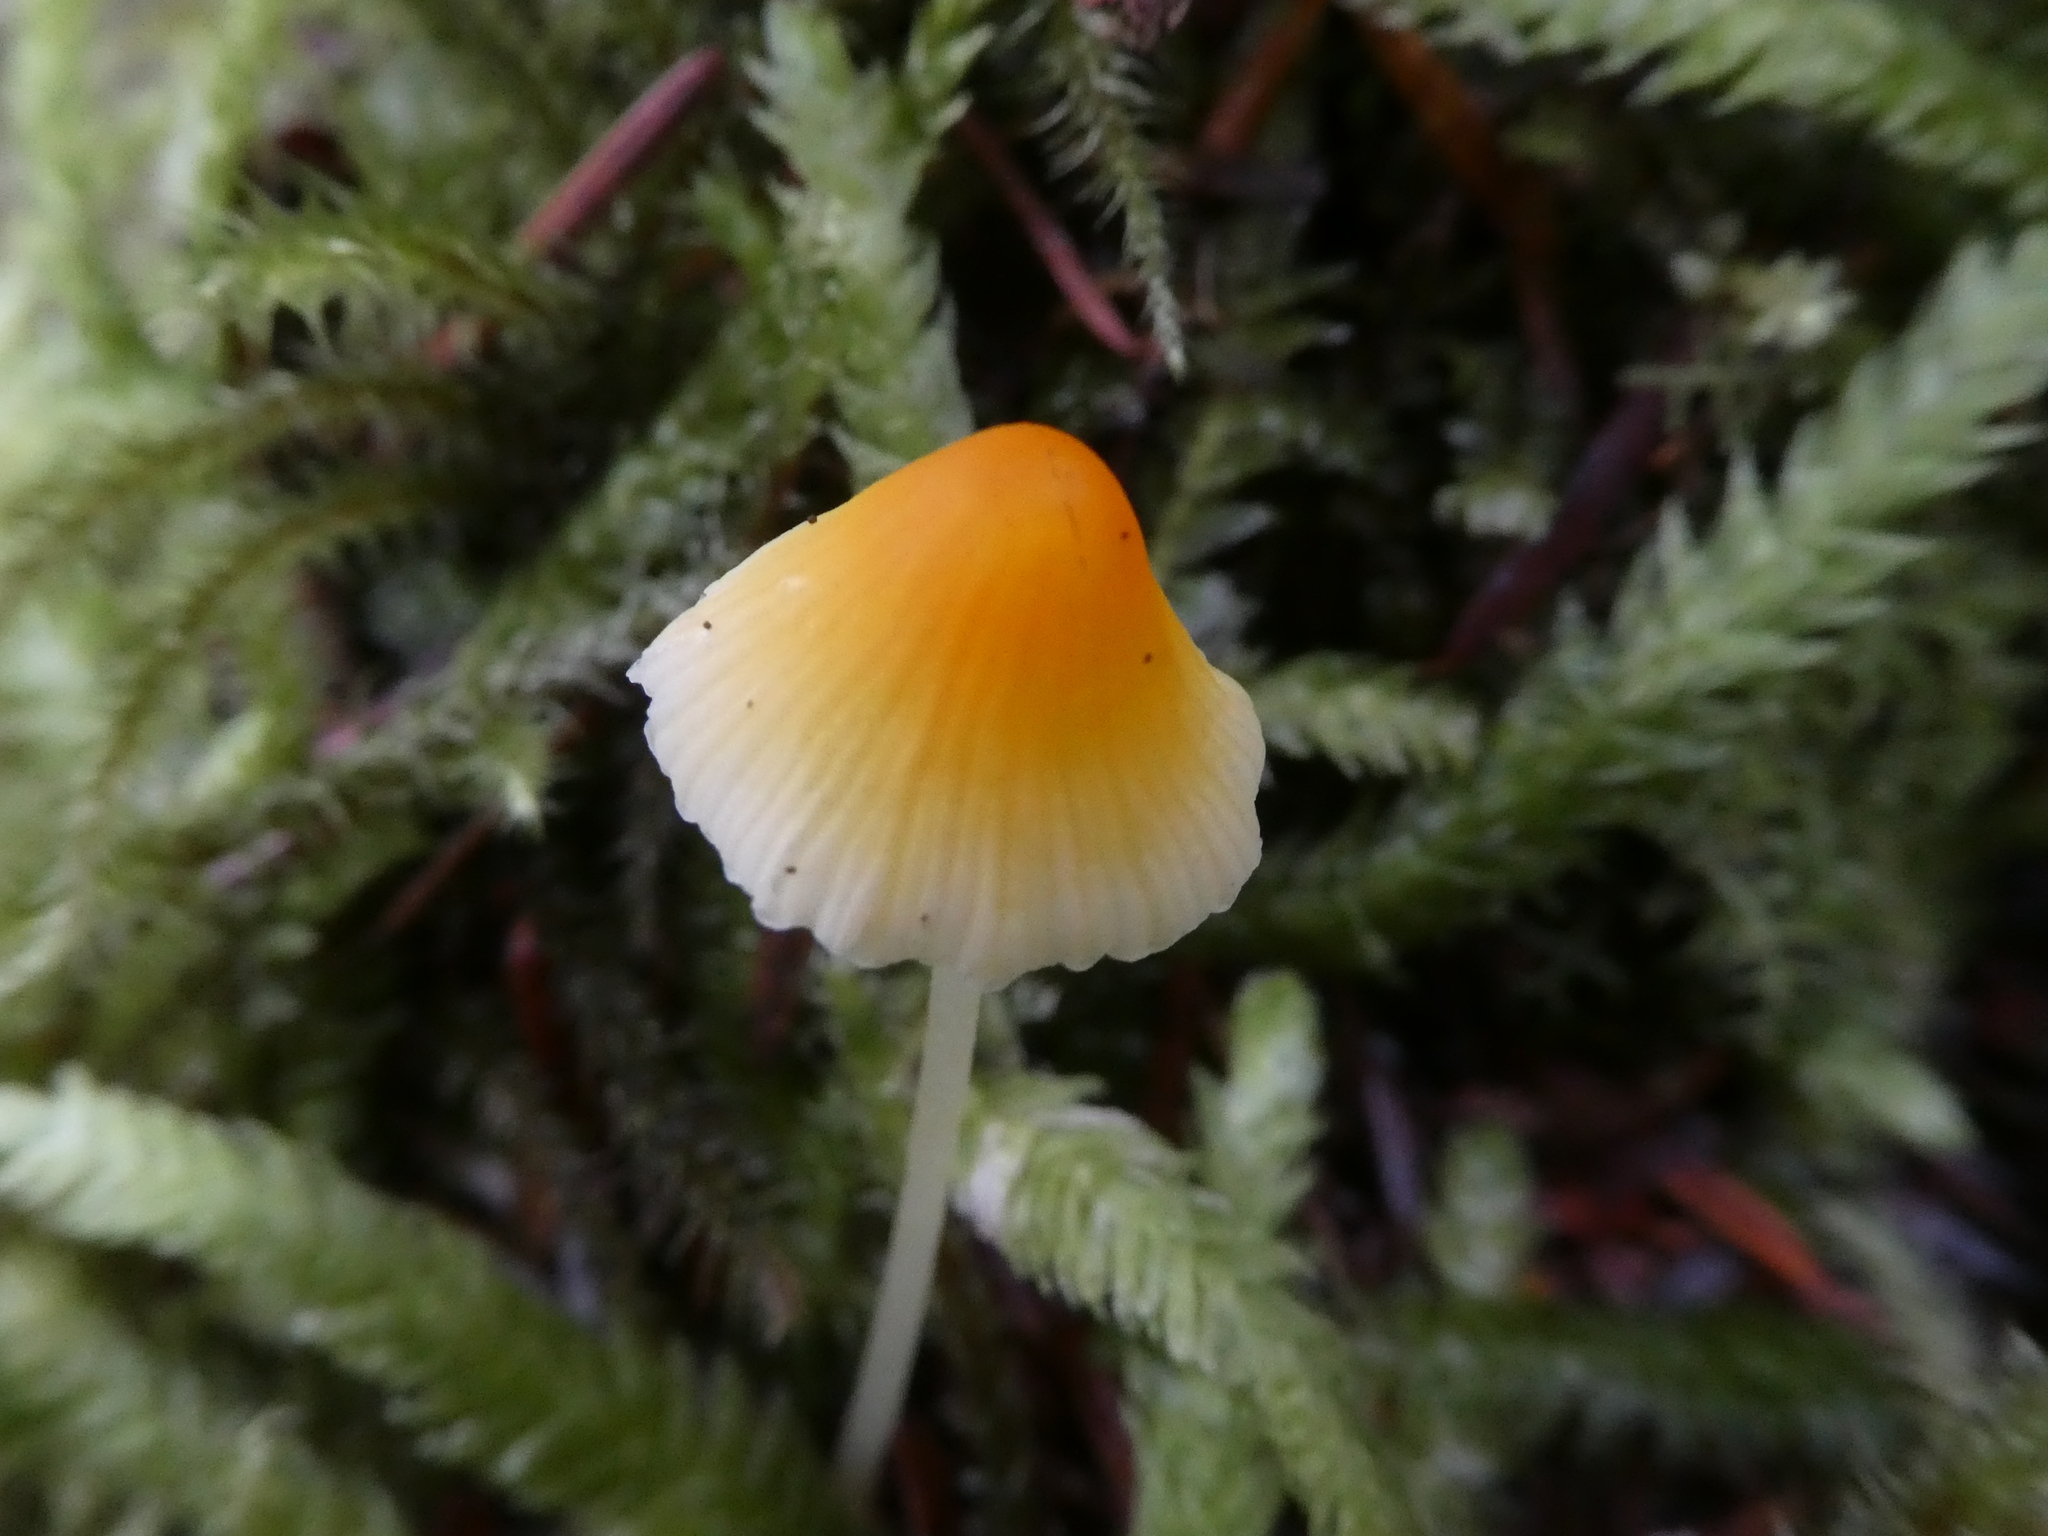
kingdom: Fungi
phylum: Basidiomycota
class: Agaricomycetes
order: Agaricales
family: Mycenaceae
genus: Atheniella
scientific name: Atheniella aurantiidisca
